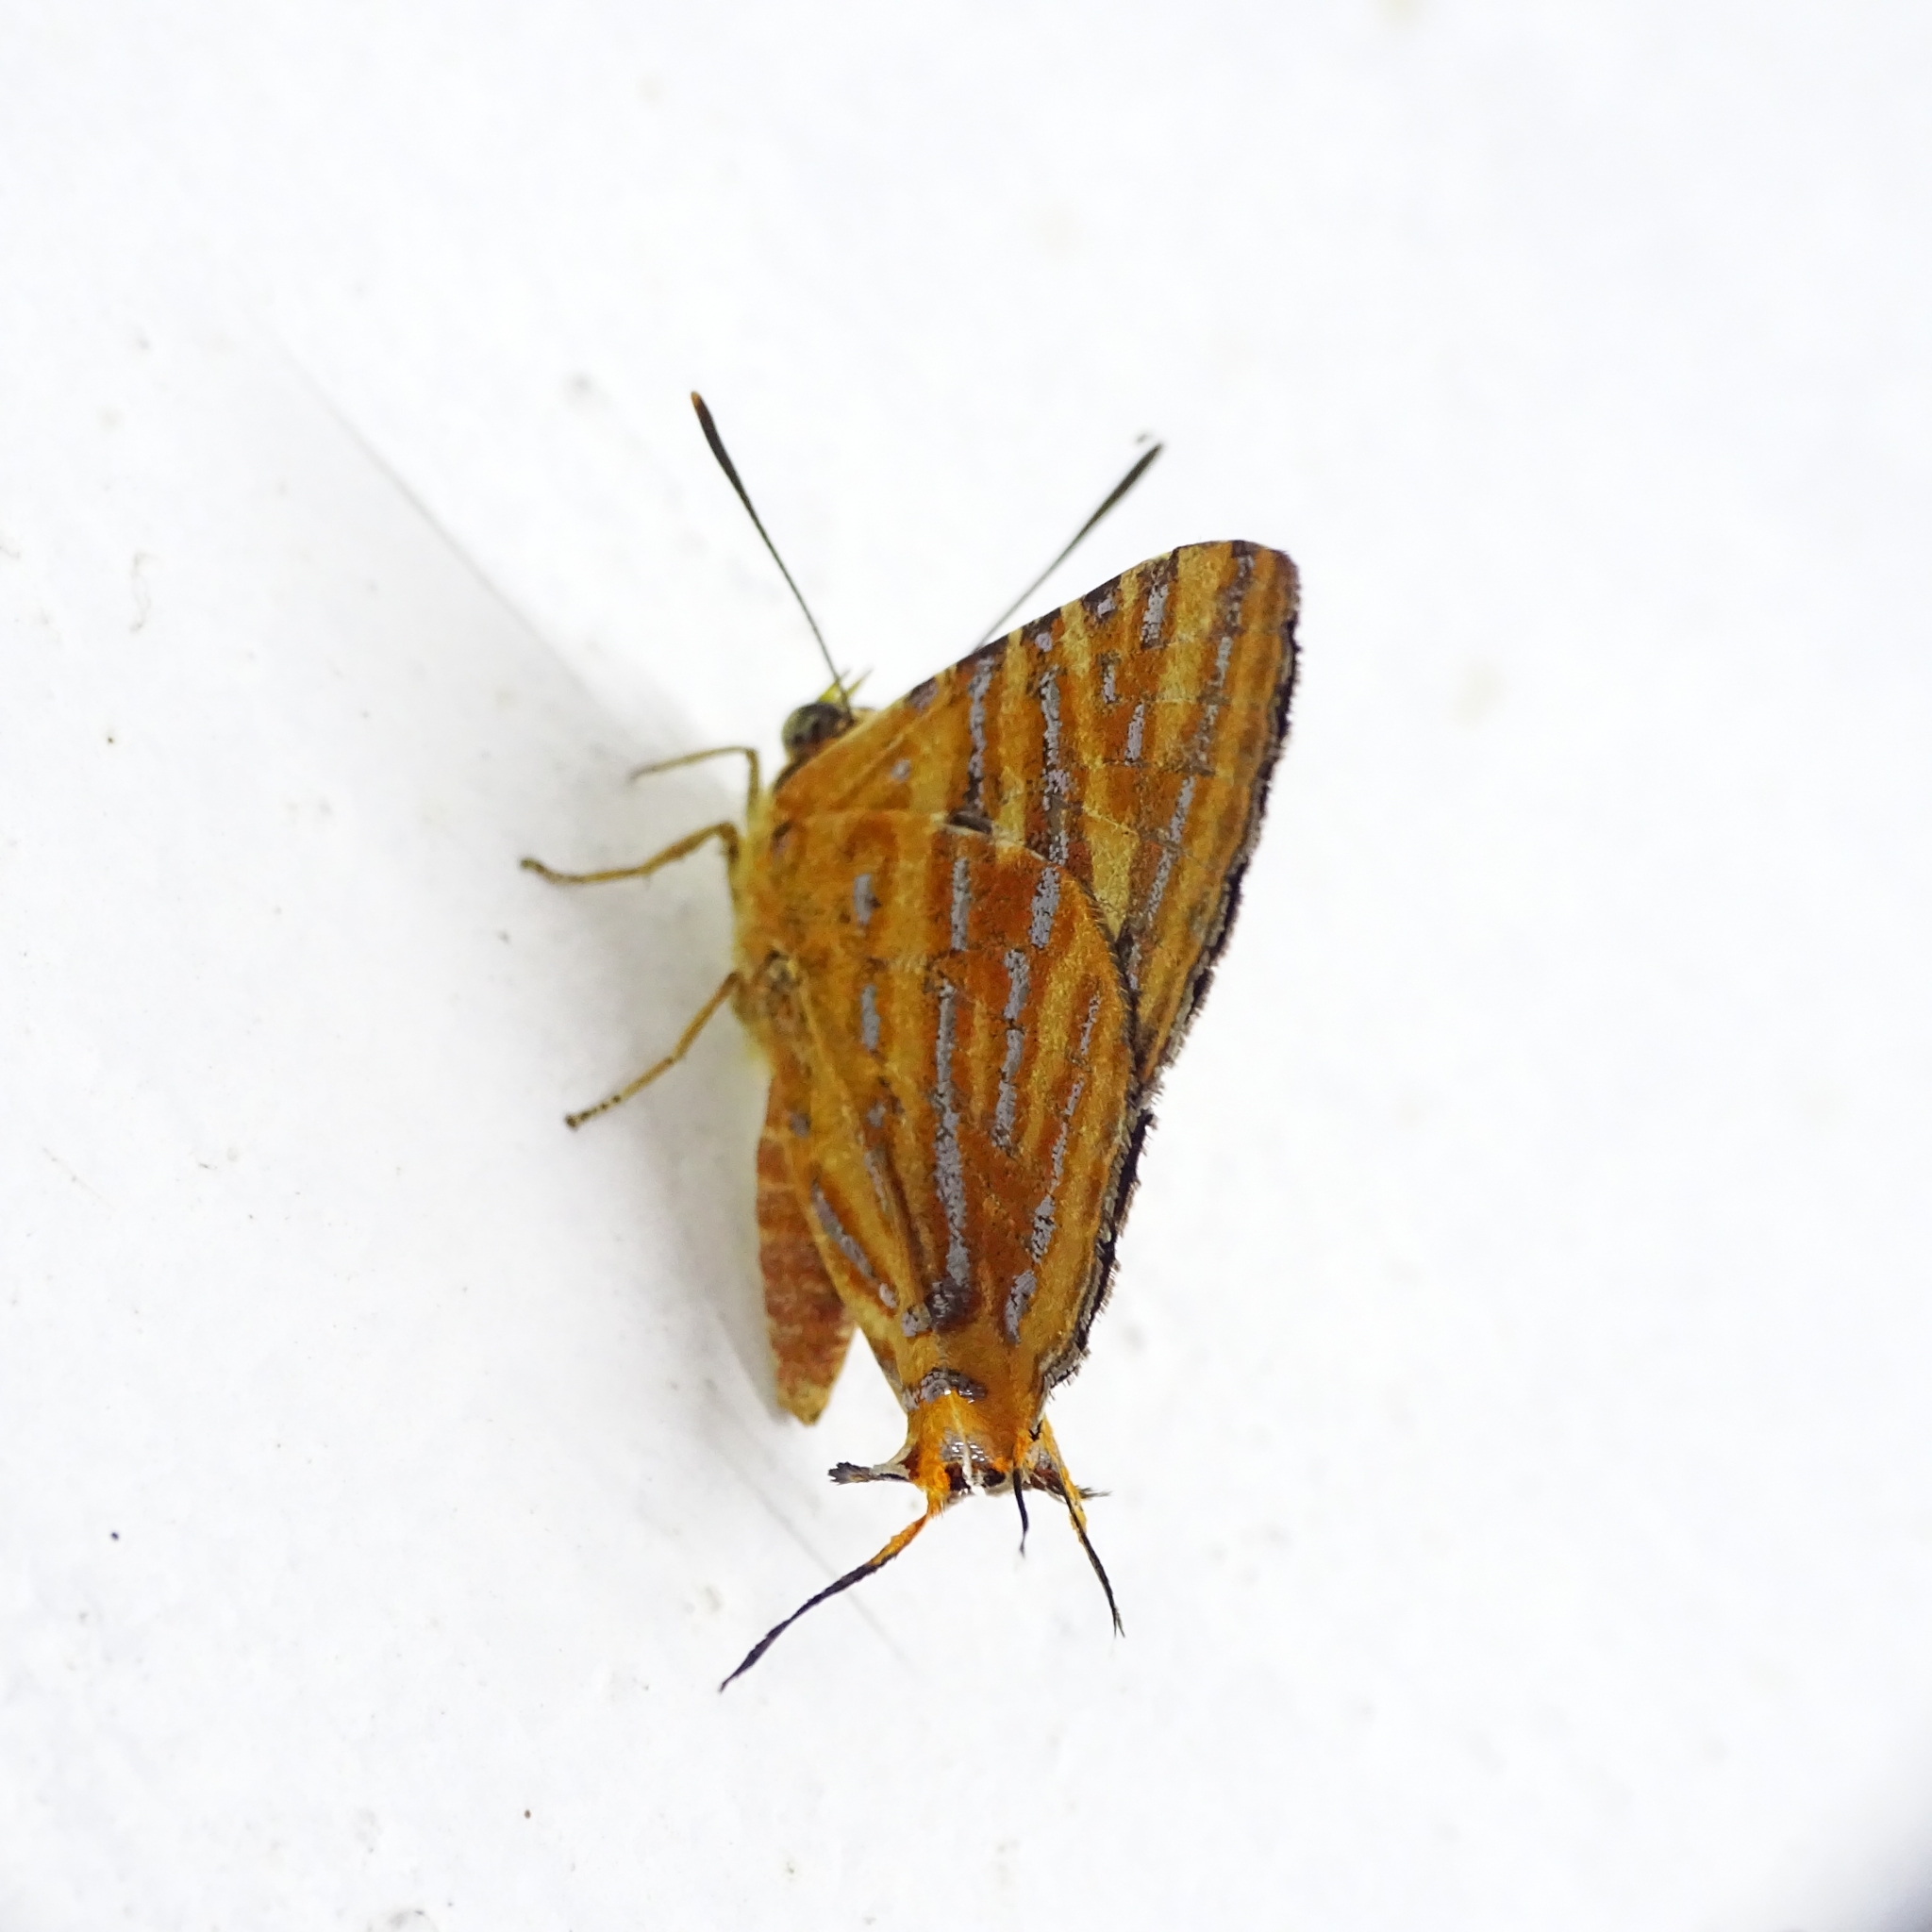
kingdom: Animalia
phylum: Arthropoda
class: Insecta
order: Lepidoptera
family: Lycaenidae
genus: Cigaritis
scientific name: Cigaritis lohita
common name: Long-banded silverline
